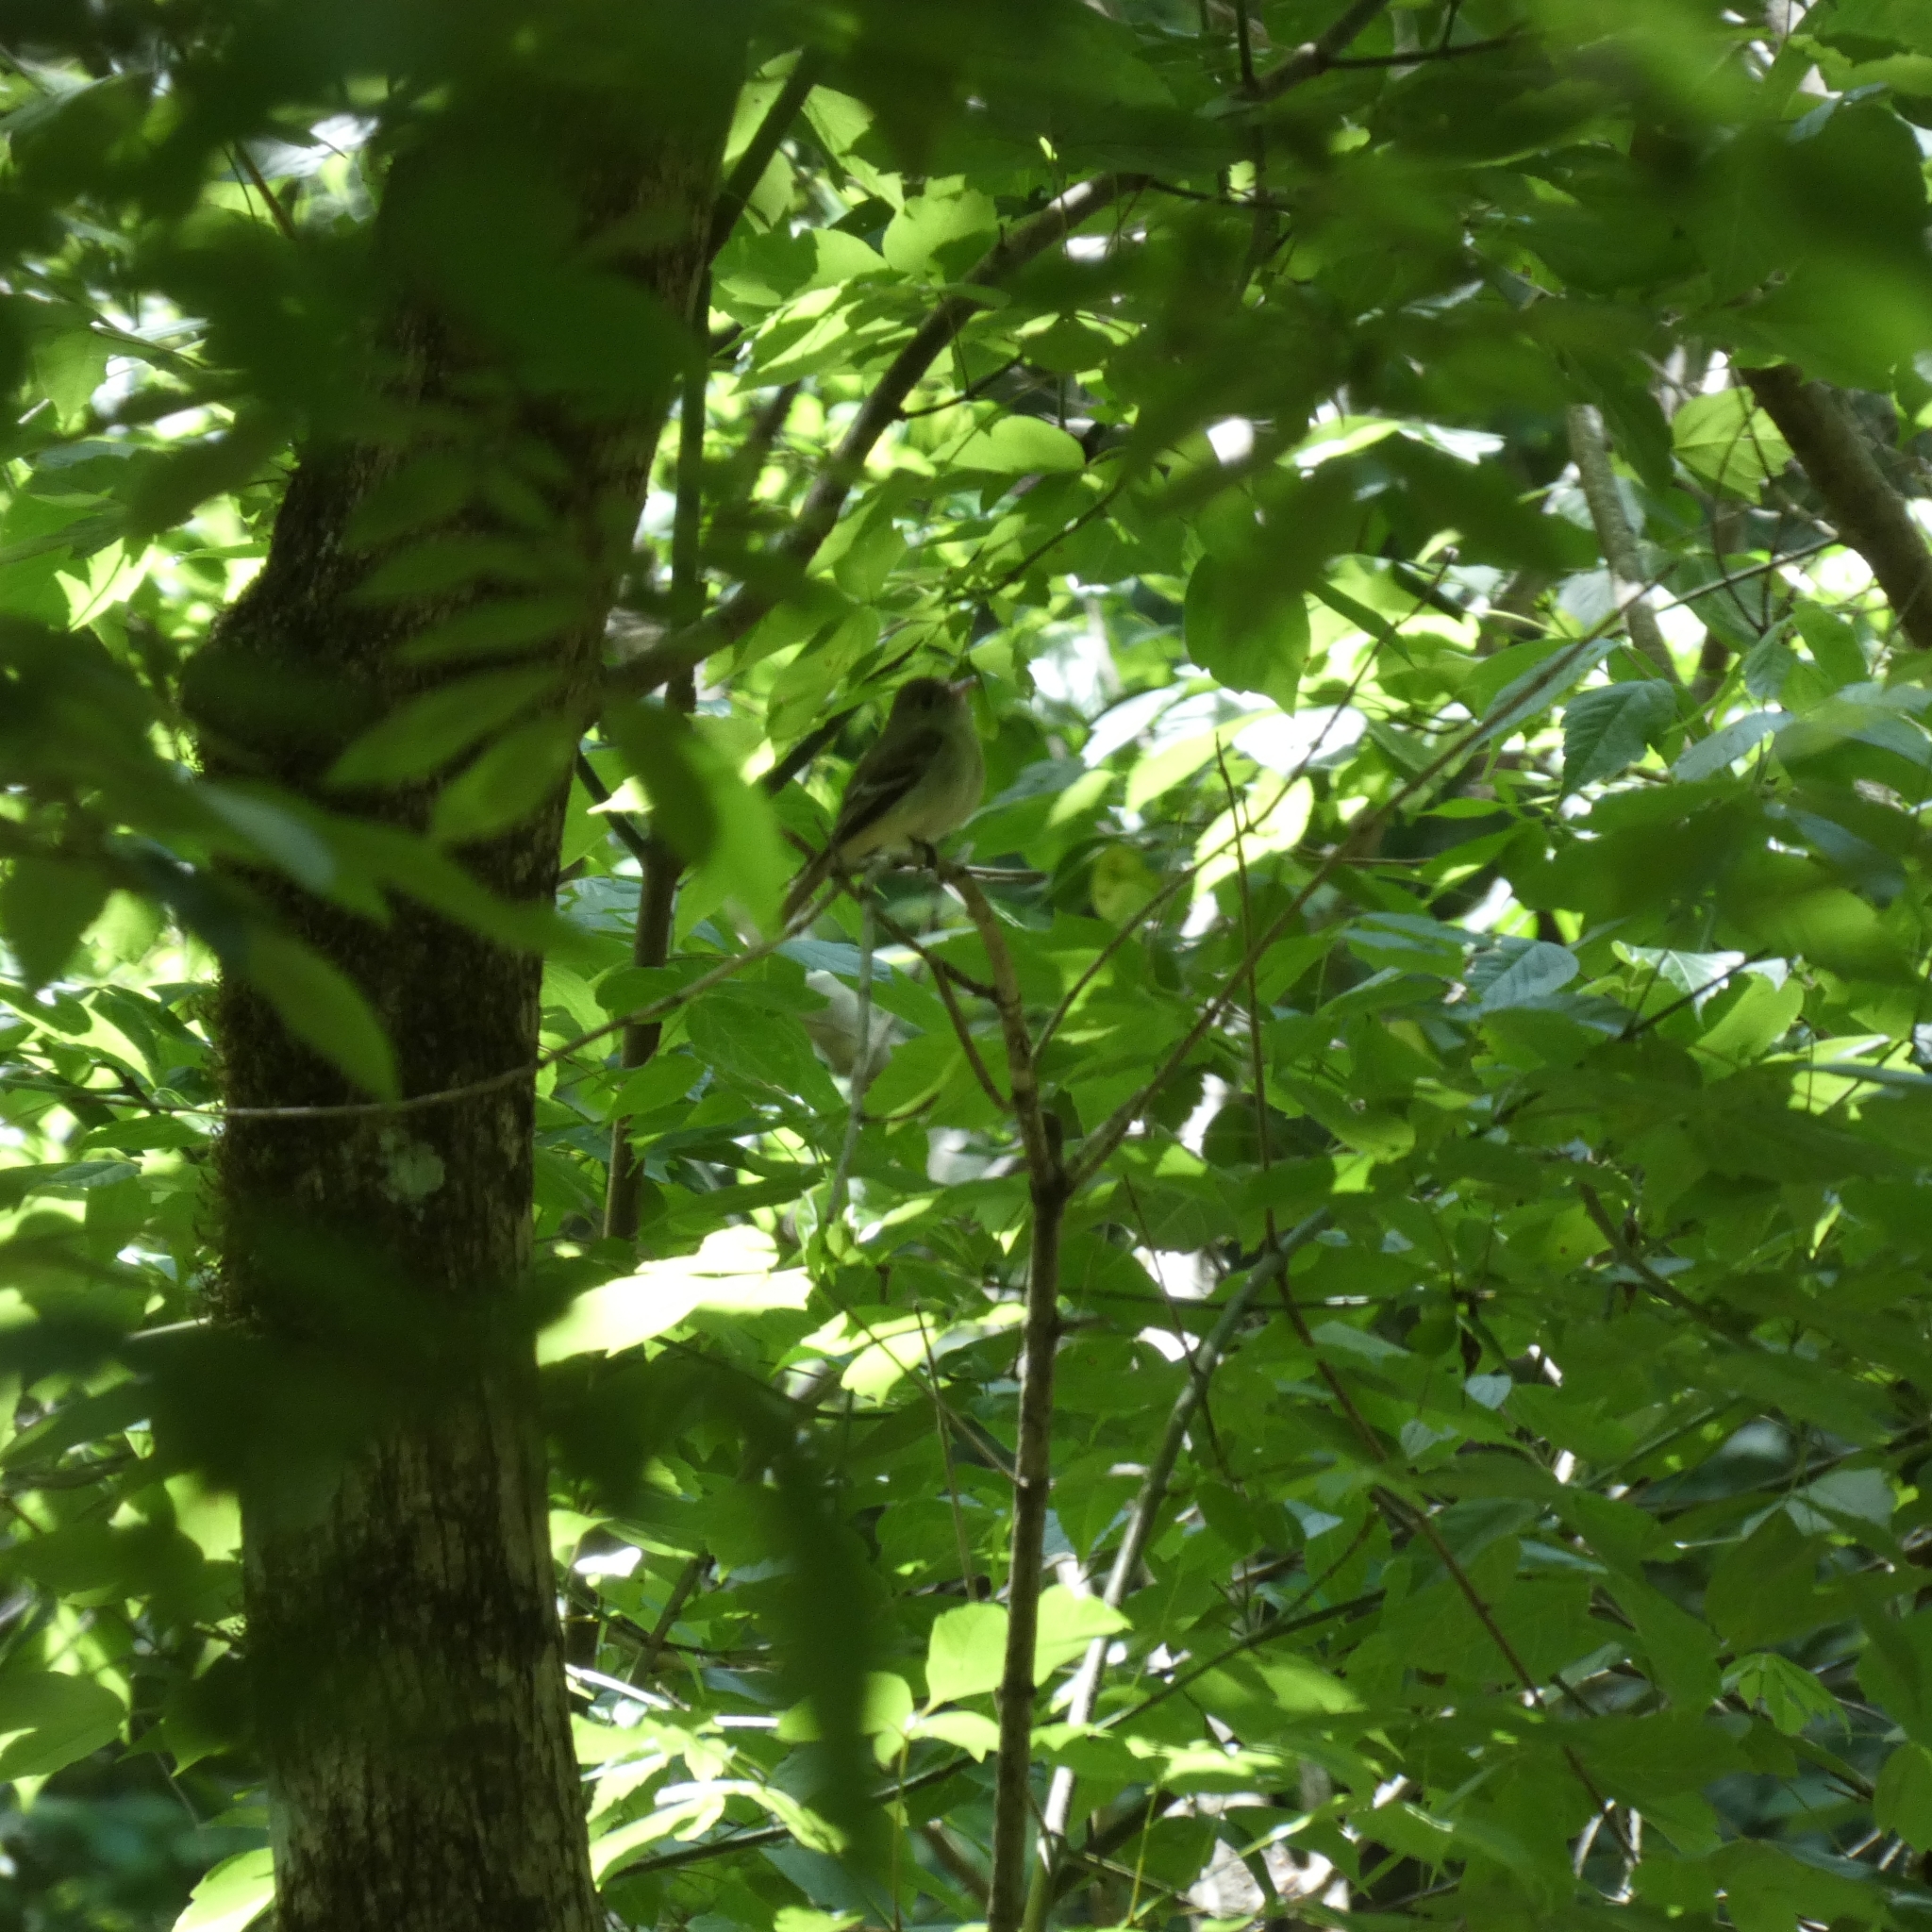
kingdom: Animalia
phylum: Chordata
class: Aves
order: Passeriformes
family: Tyrannidae
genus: Empidonax
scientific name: Empidonax virescens
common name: Acadian flycatcher
